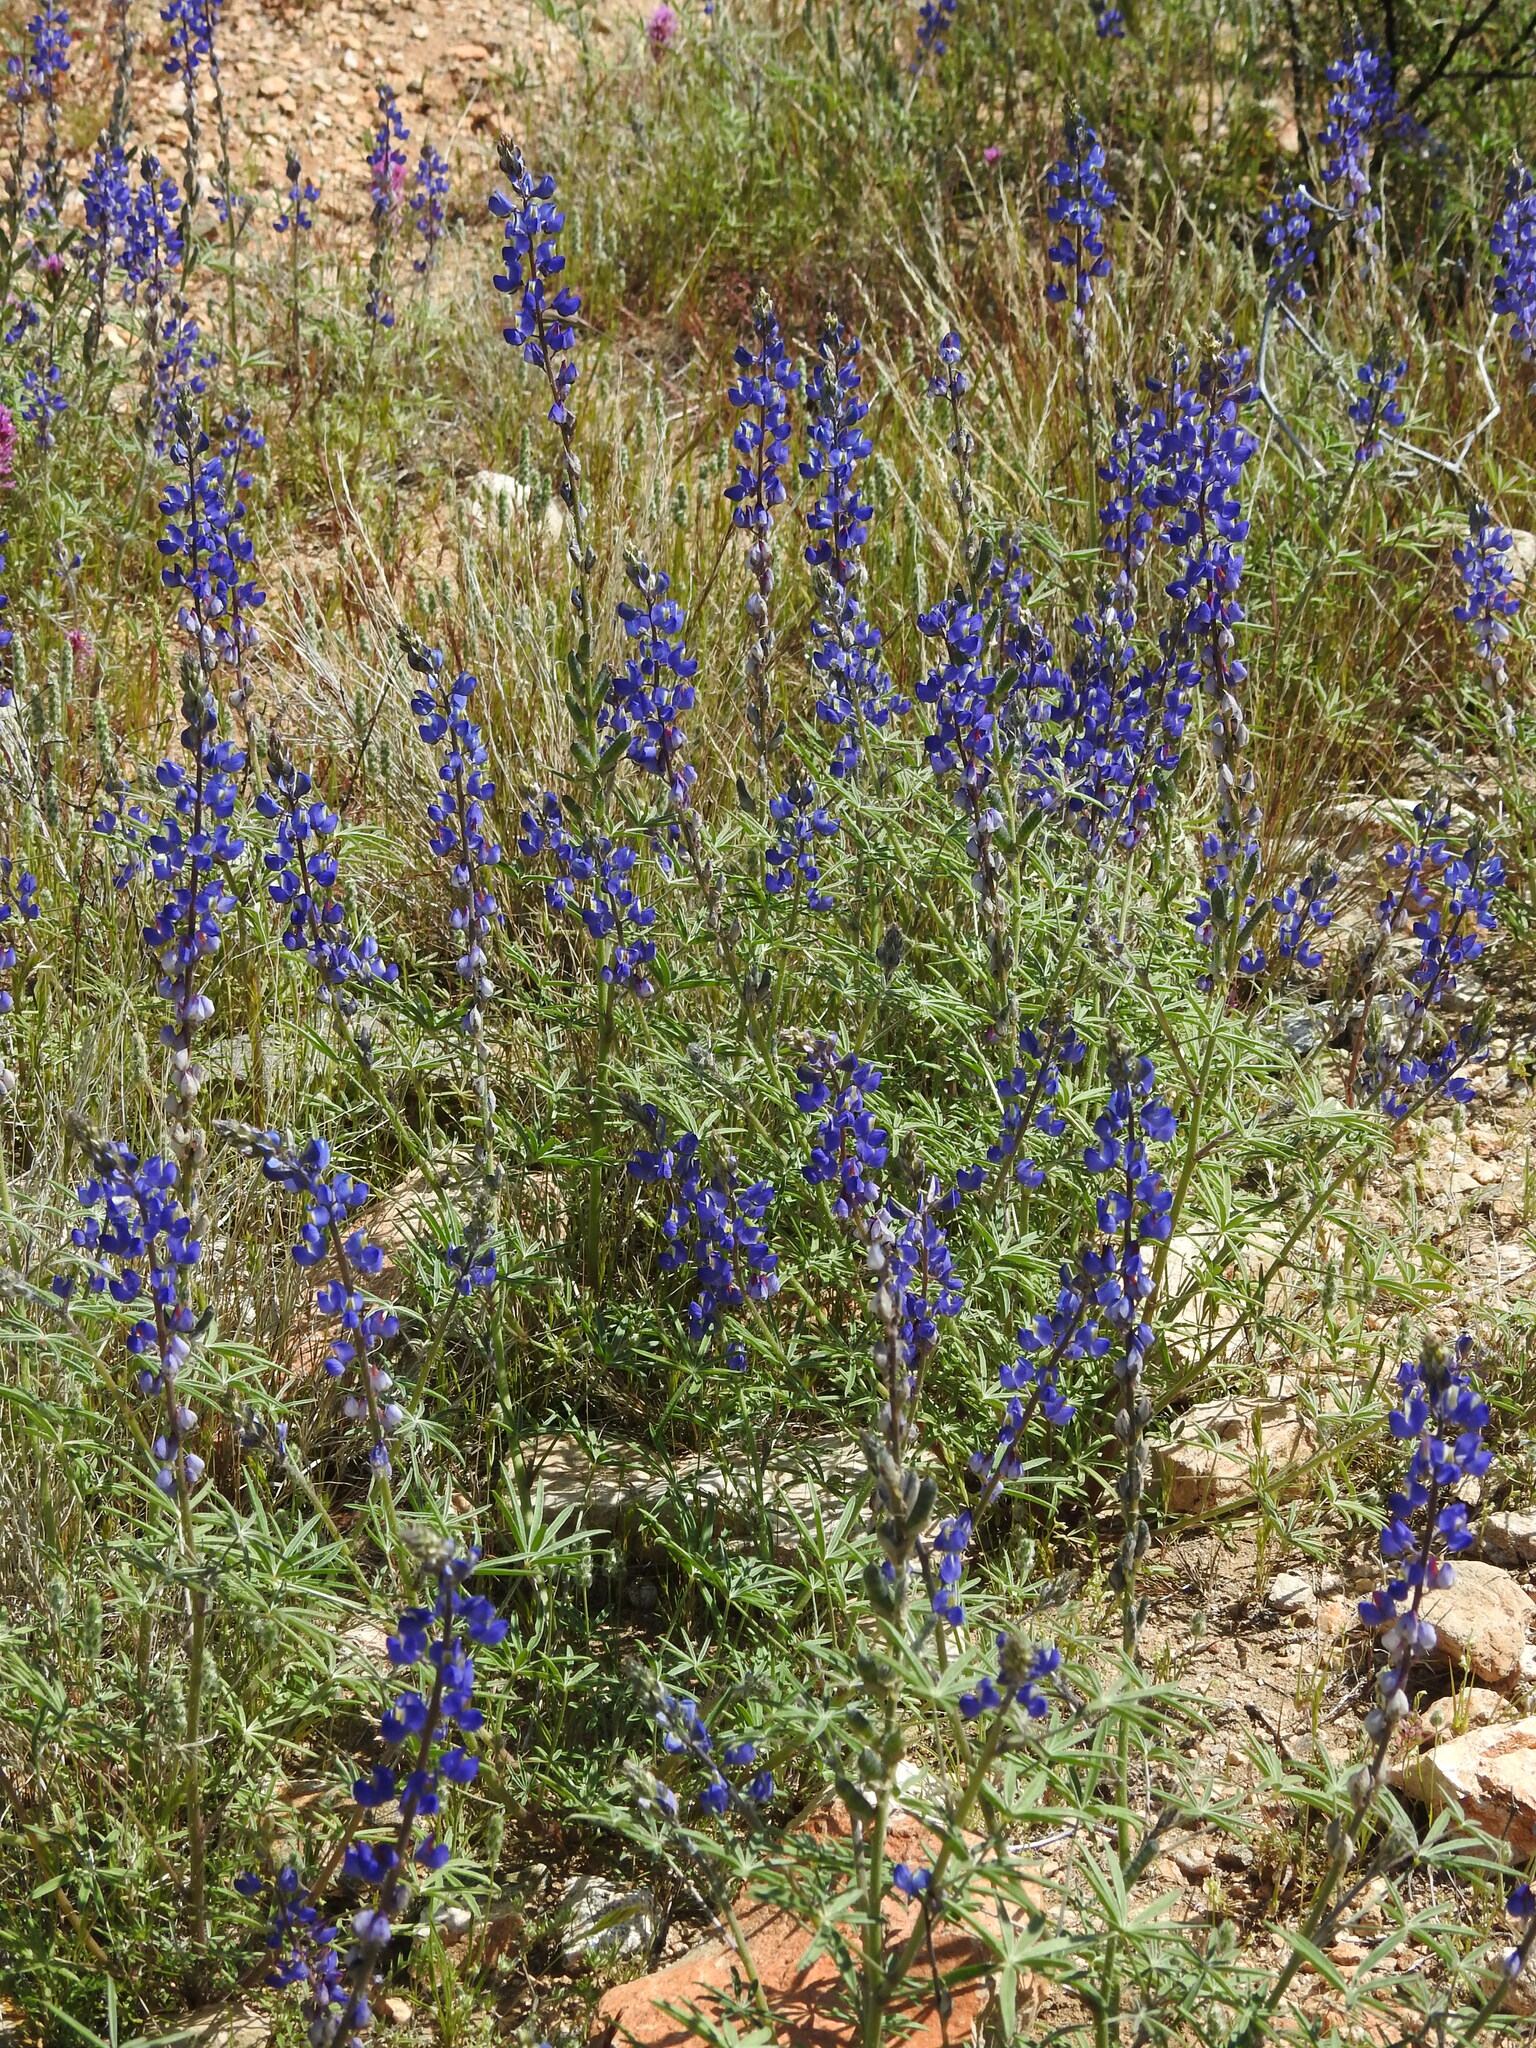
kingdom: Plantae
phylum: Tracheophyta
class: Magnoliopsida
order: Fabales
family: Fabaceae
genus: Lupinus
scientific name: Lupinus sparsiflorus
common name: Coulter's lupine
